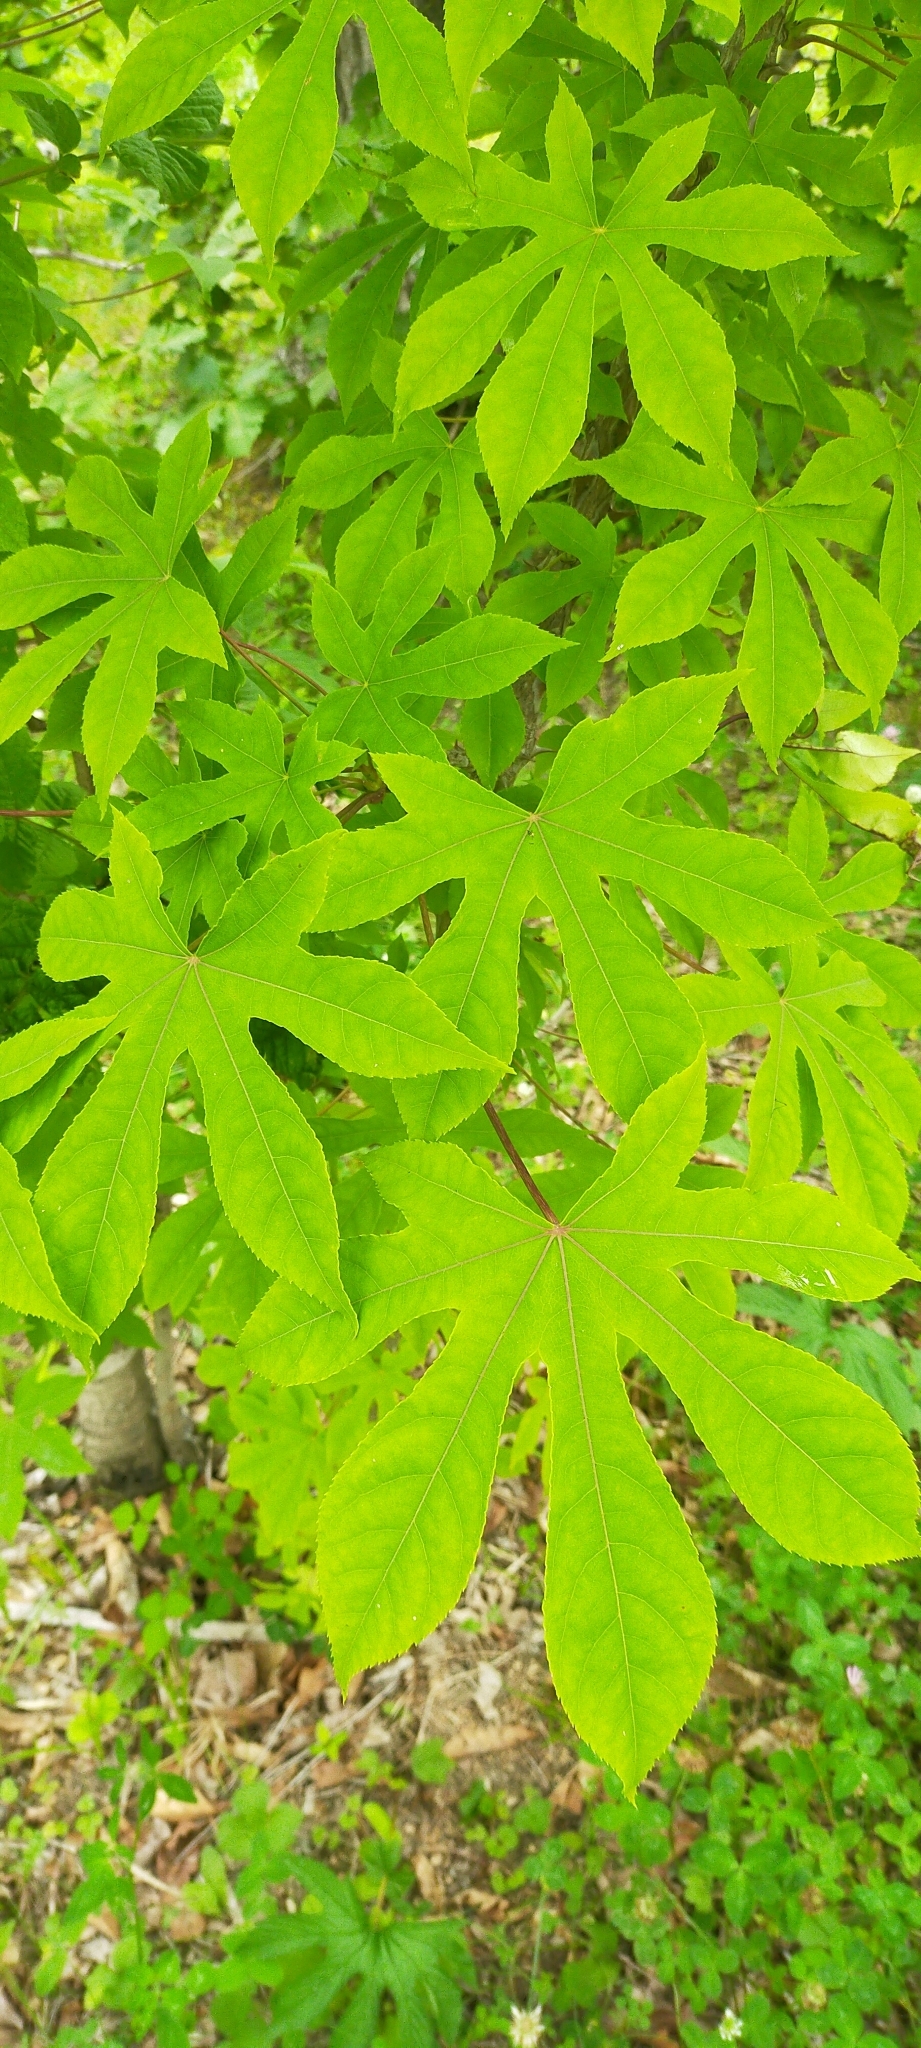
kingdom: Plantae
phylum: Tracheophyta
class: Magnoliopsida
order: Apiales
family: Araliaceae
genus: Kalopanax
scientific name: Kalopanax septemlobus
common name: Castor aralia
